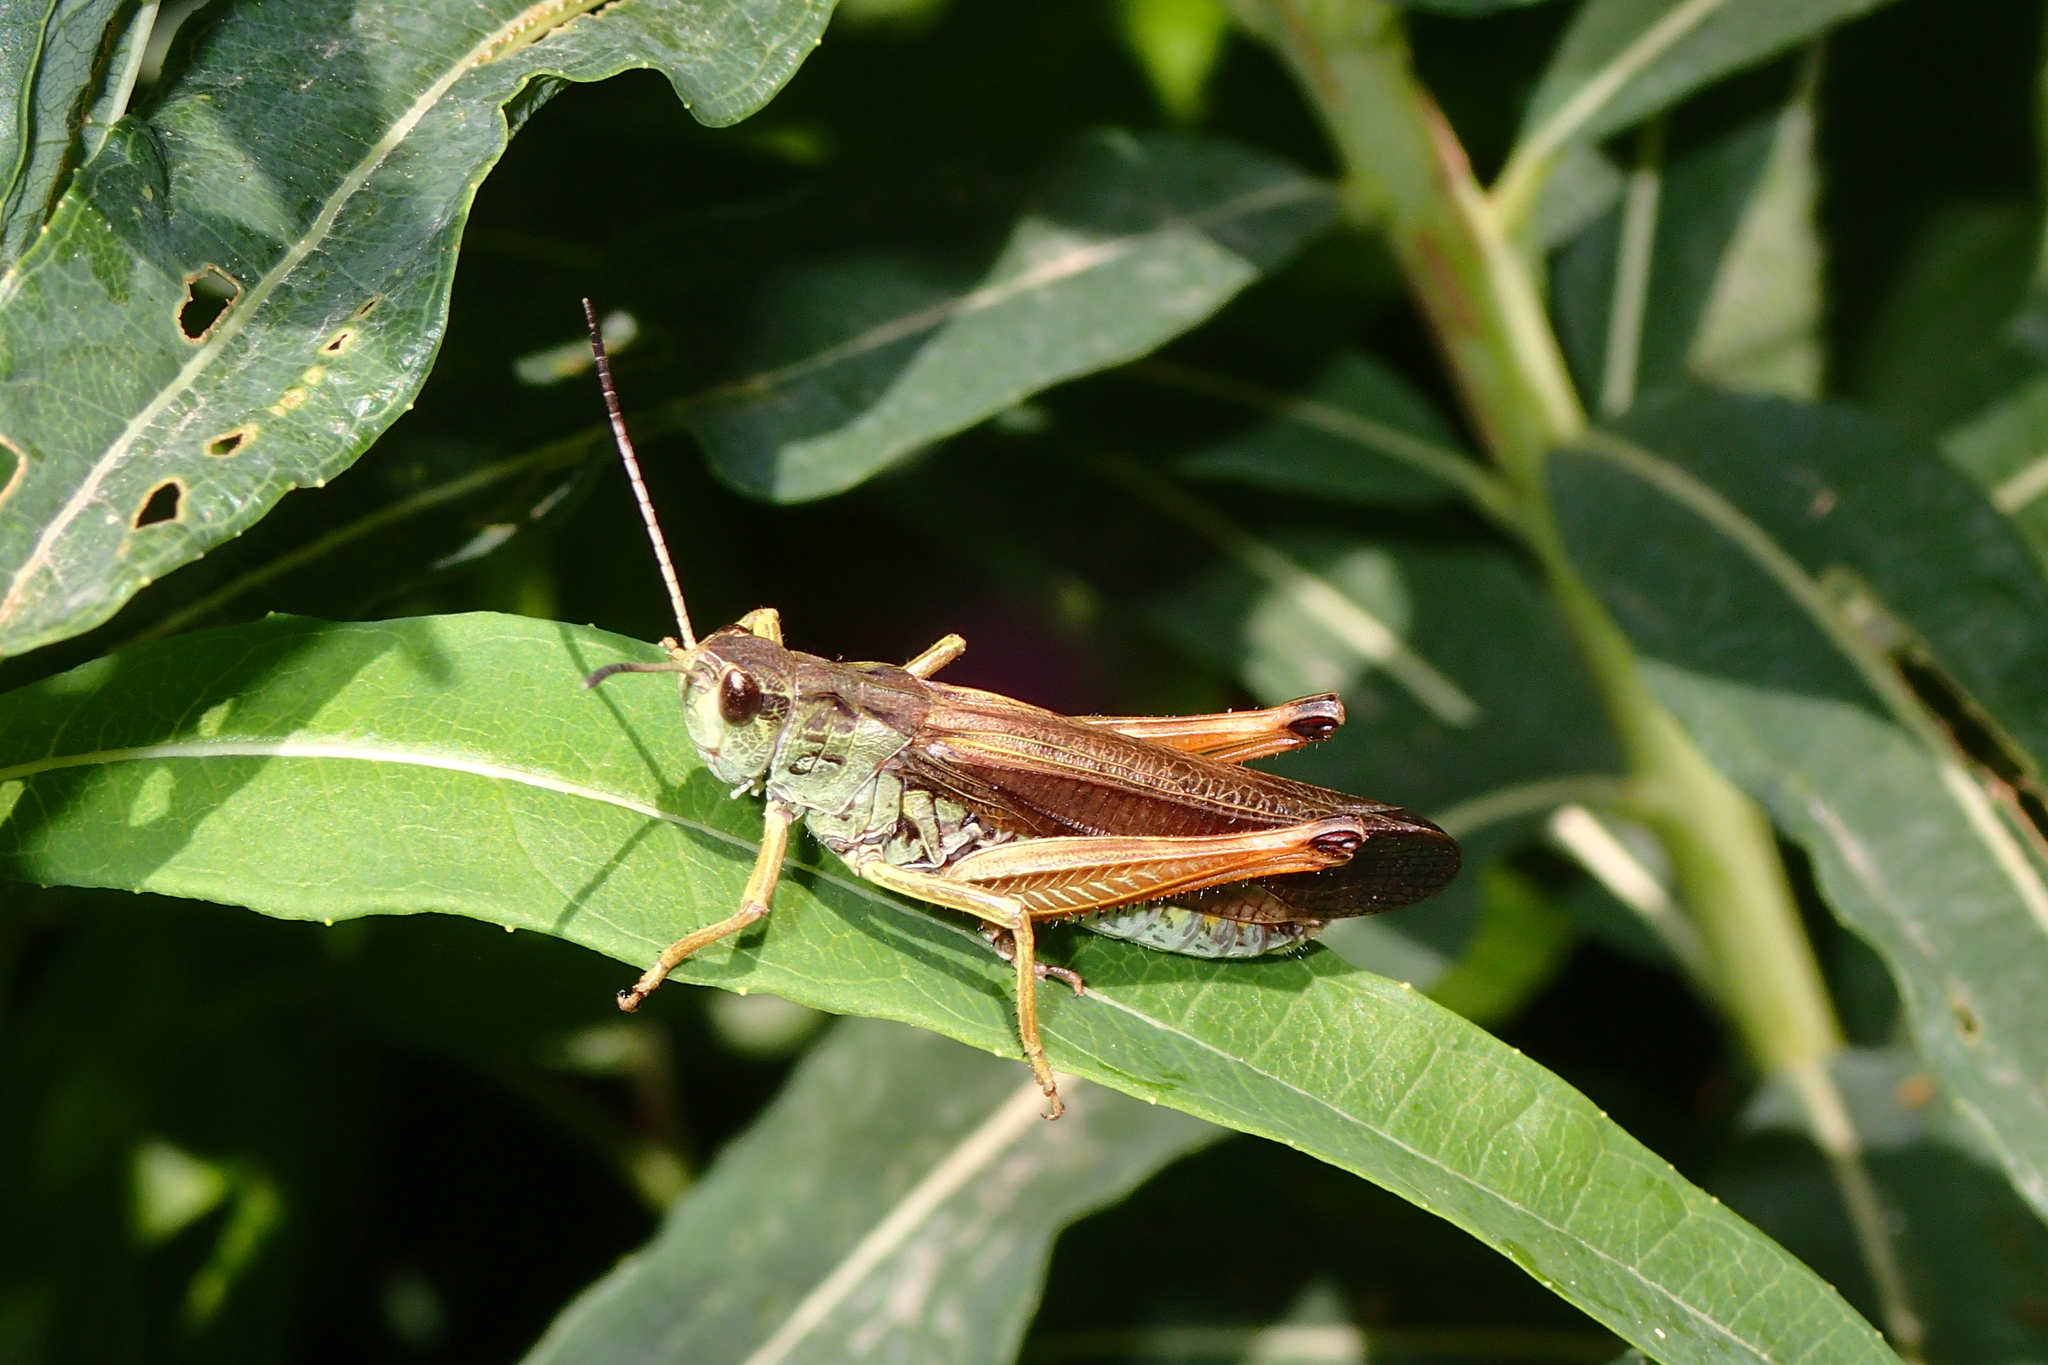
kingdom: Animalia
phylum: Arthropoda
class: Insecta
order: Orthoptera
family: Acrididae
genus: Stauroderus
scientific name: Stauroderus scalaris
